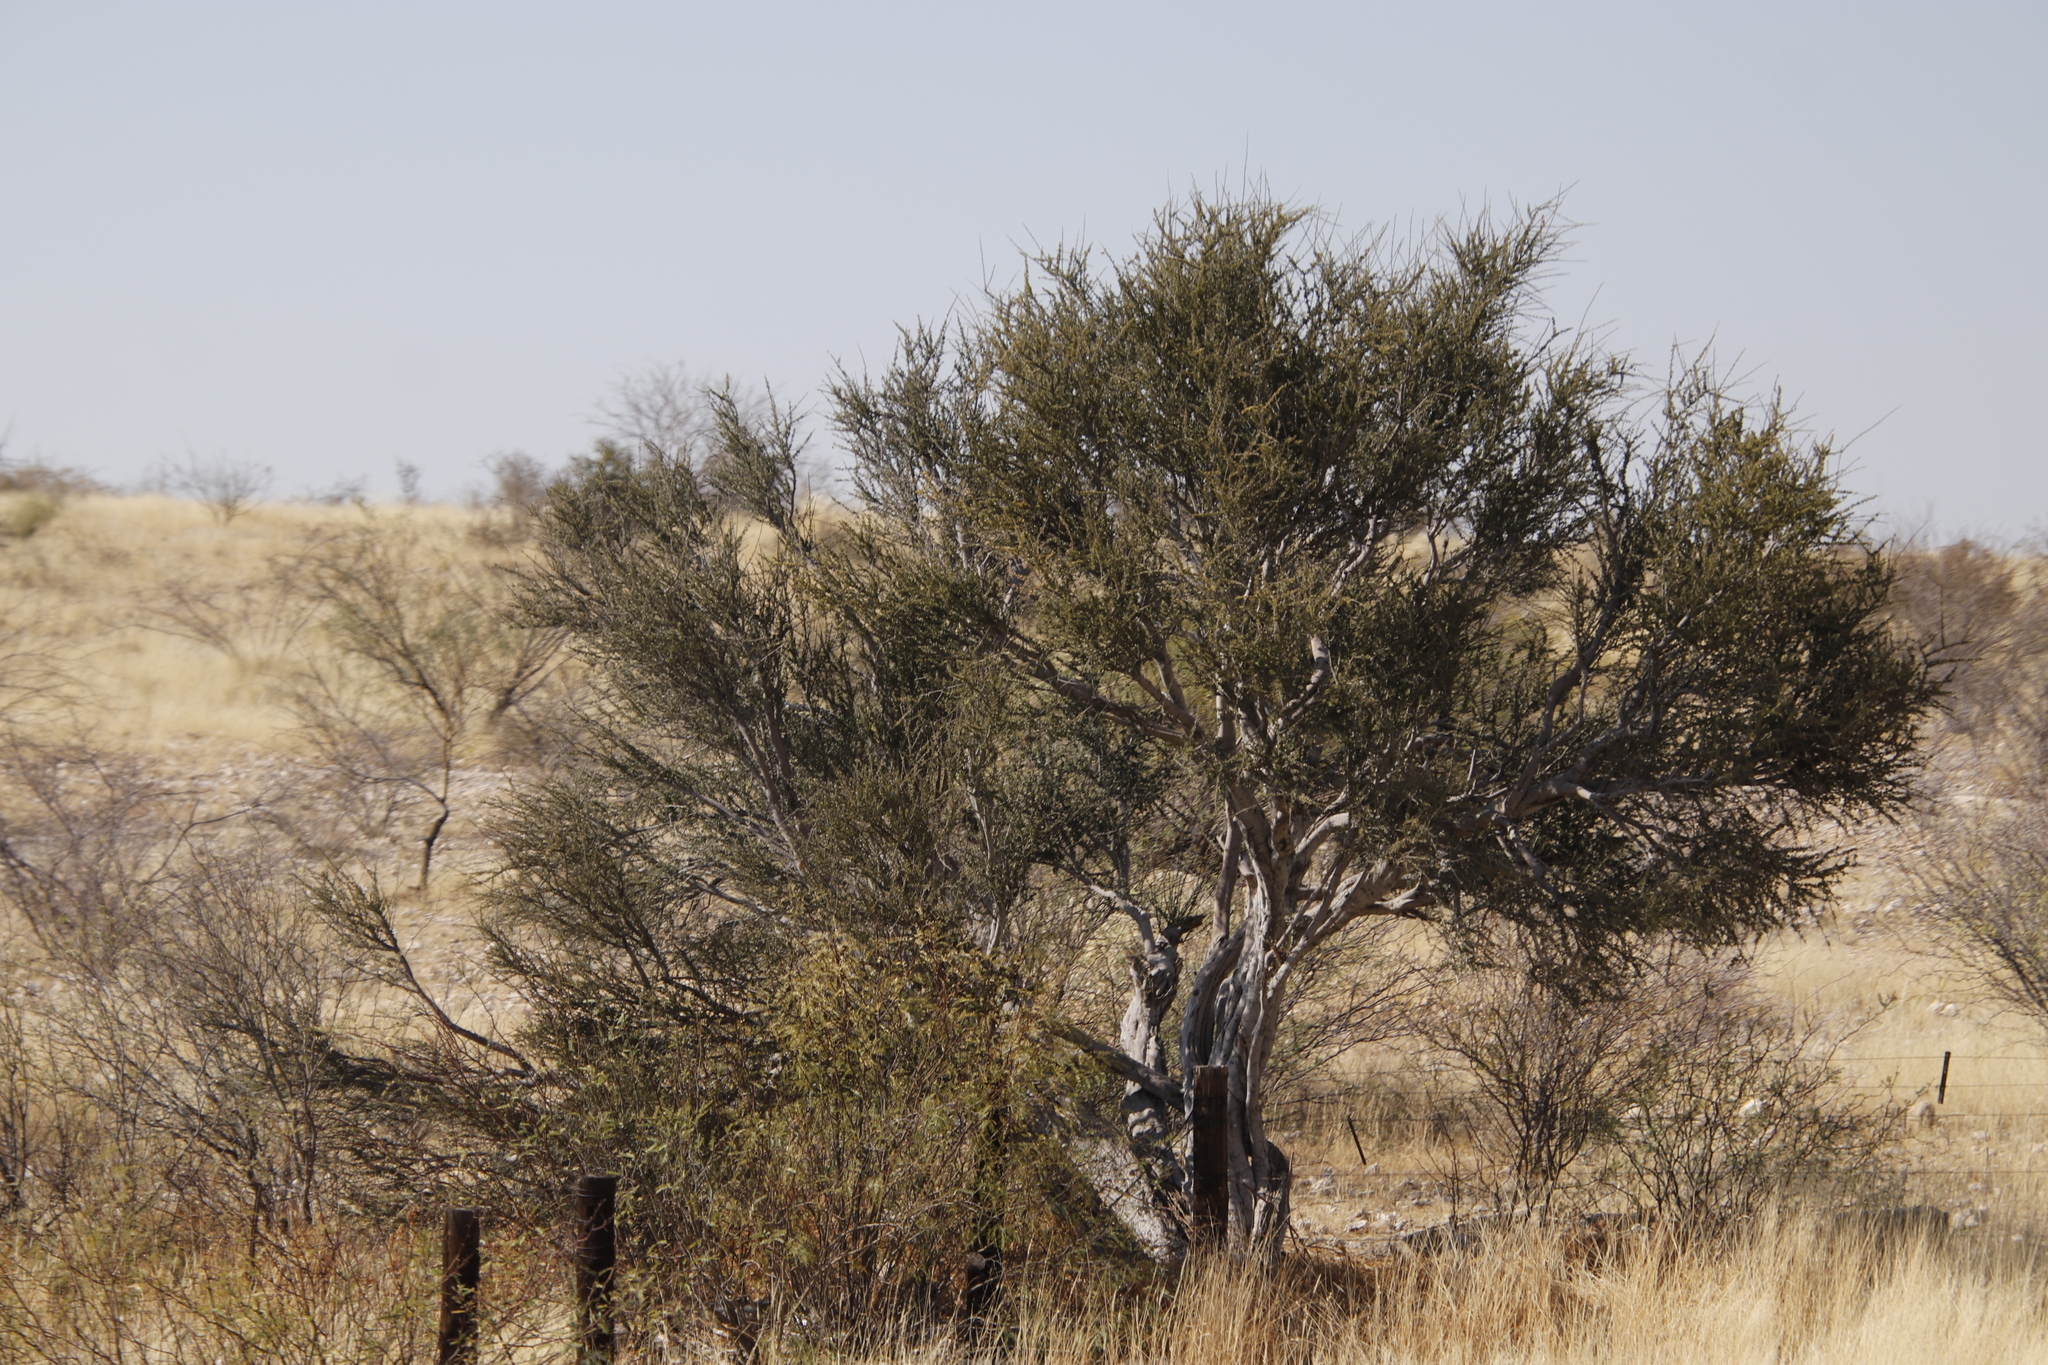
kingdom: Plantae
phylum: Tracheophyta
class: Magnoliopsida
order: Brassicales
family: Capparaceae
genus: Boscia
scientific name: Boscia foetida
